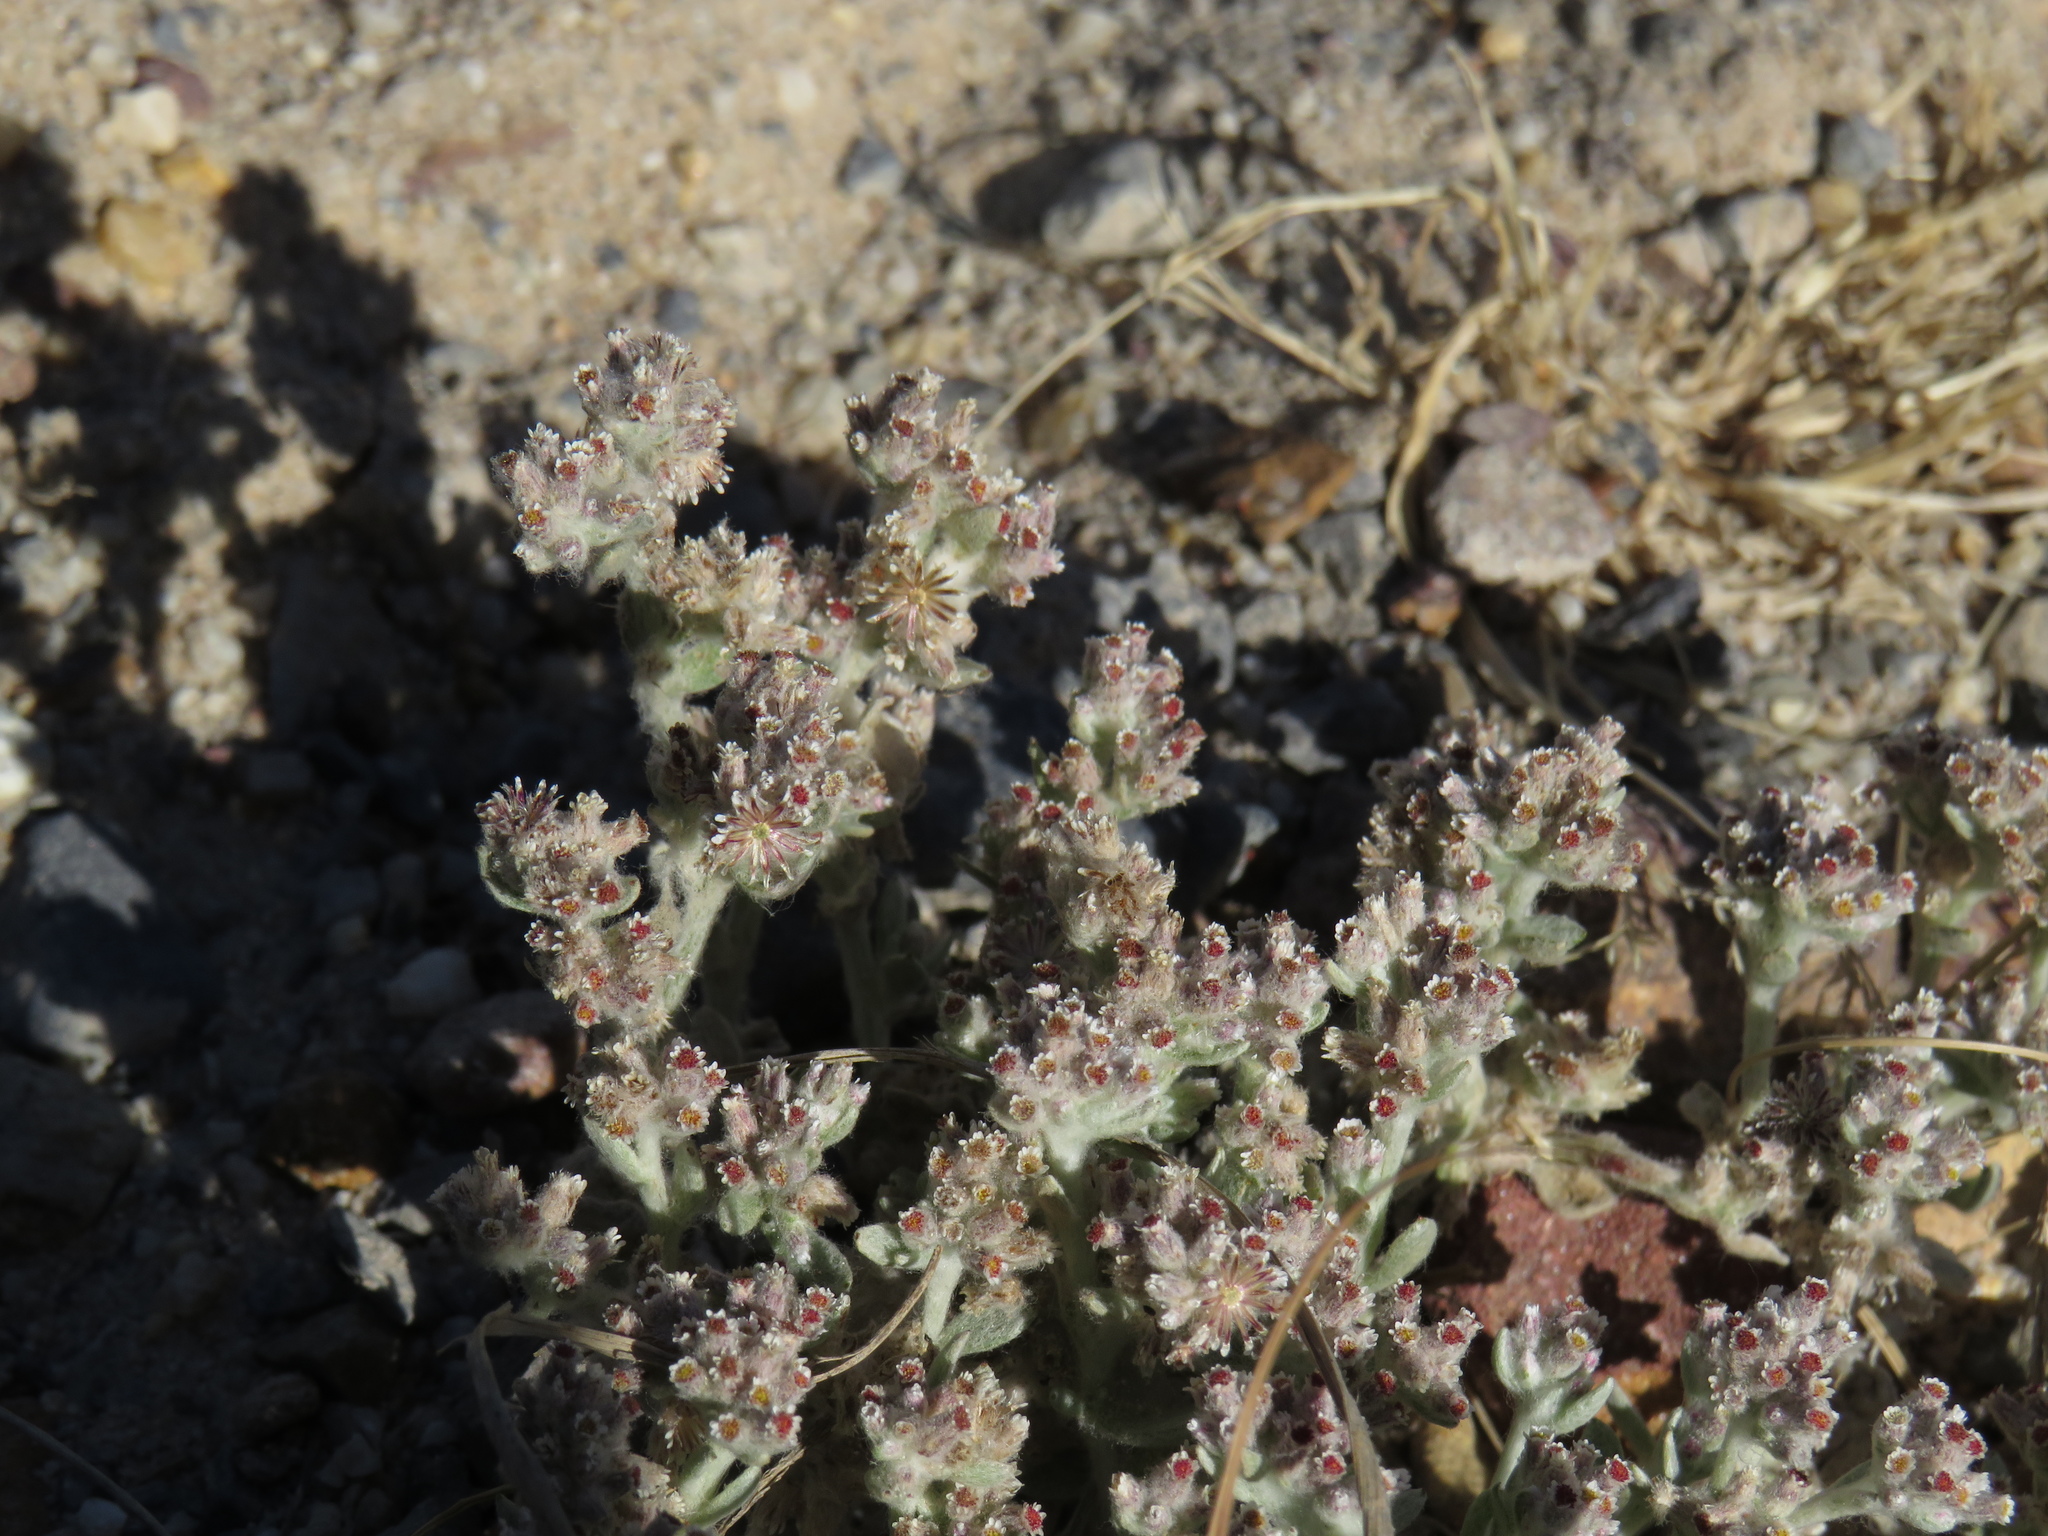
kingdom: Plantae
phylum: Tracheophyta
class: Magnoliopsida
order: Asterales
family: Asteraceae
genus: Vellereophyton
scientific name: Vellereophyton dealbatum
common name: White-cudweed
